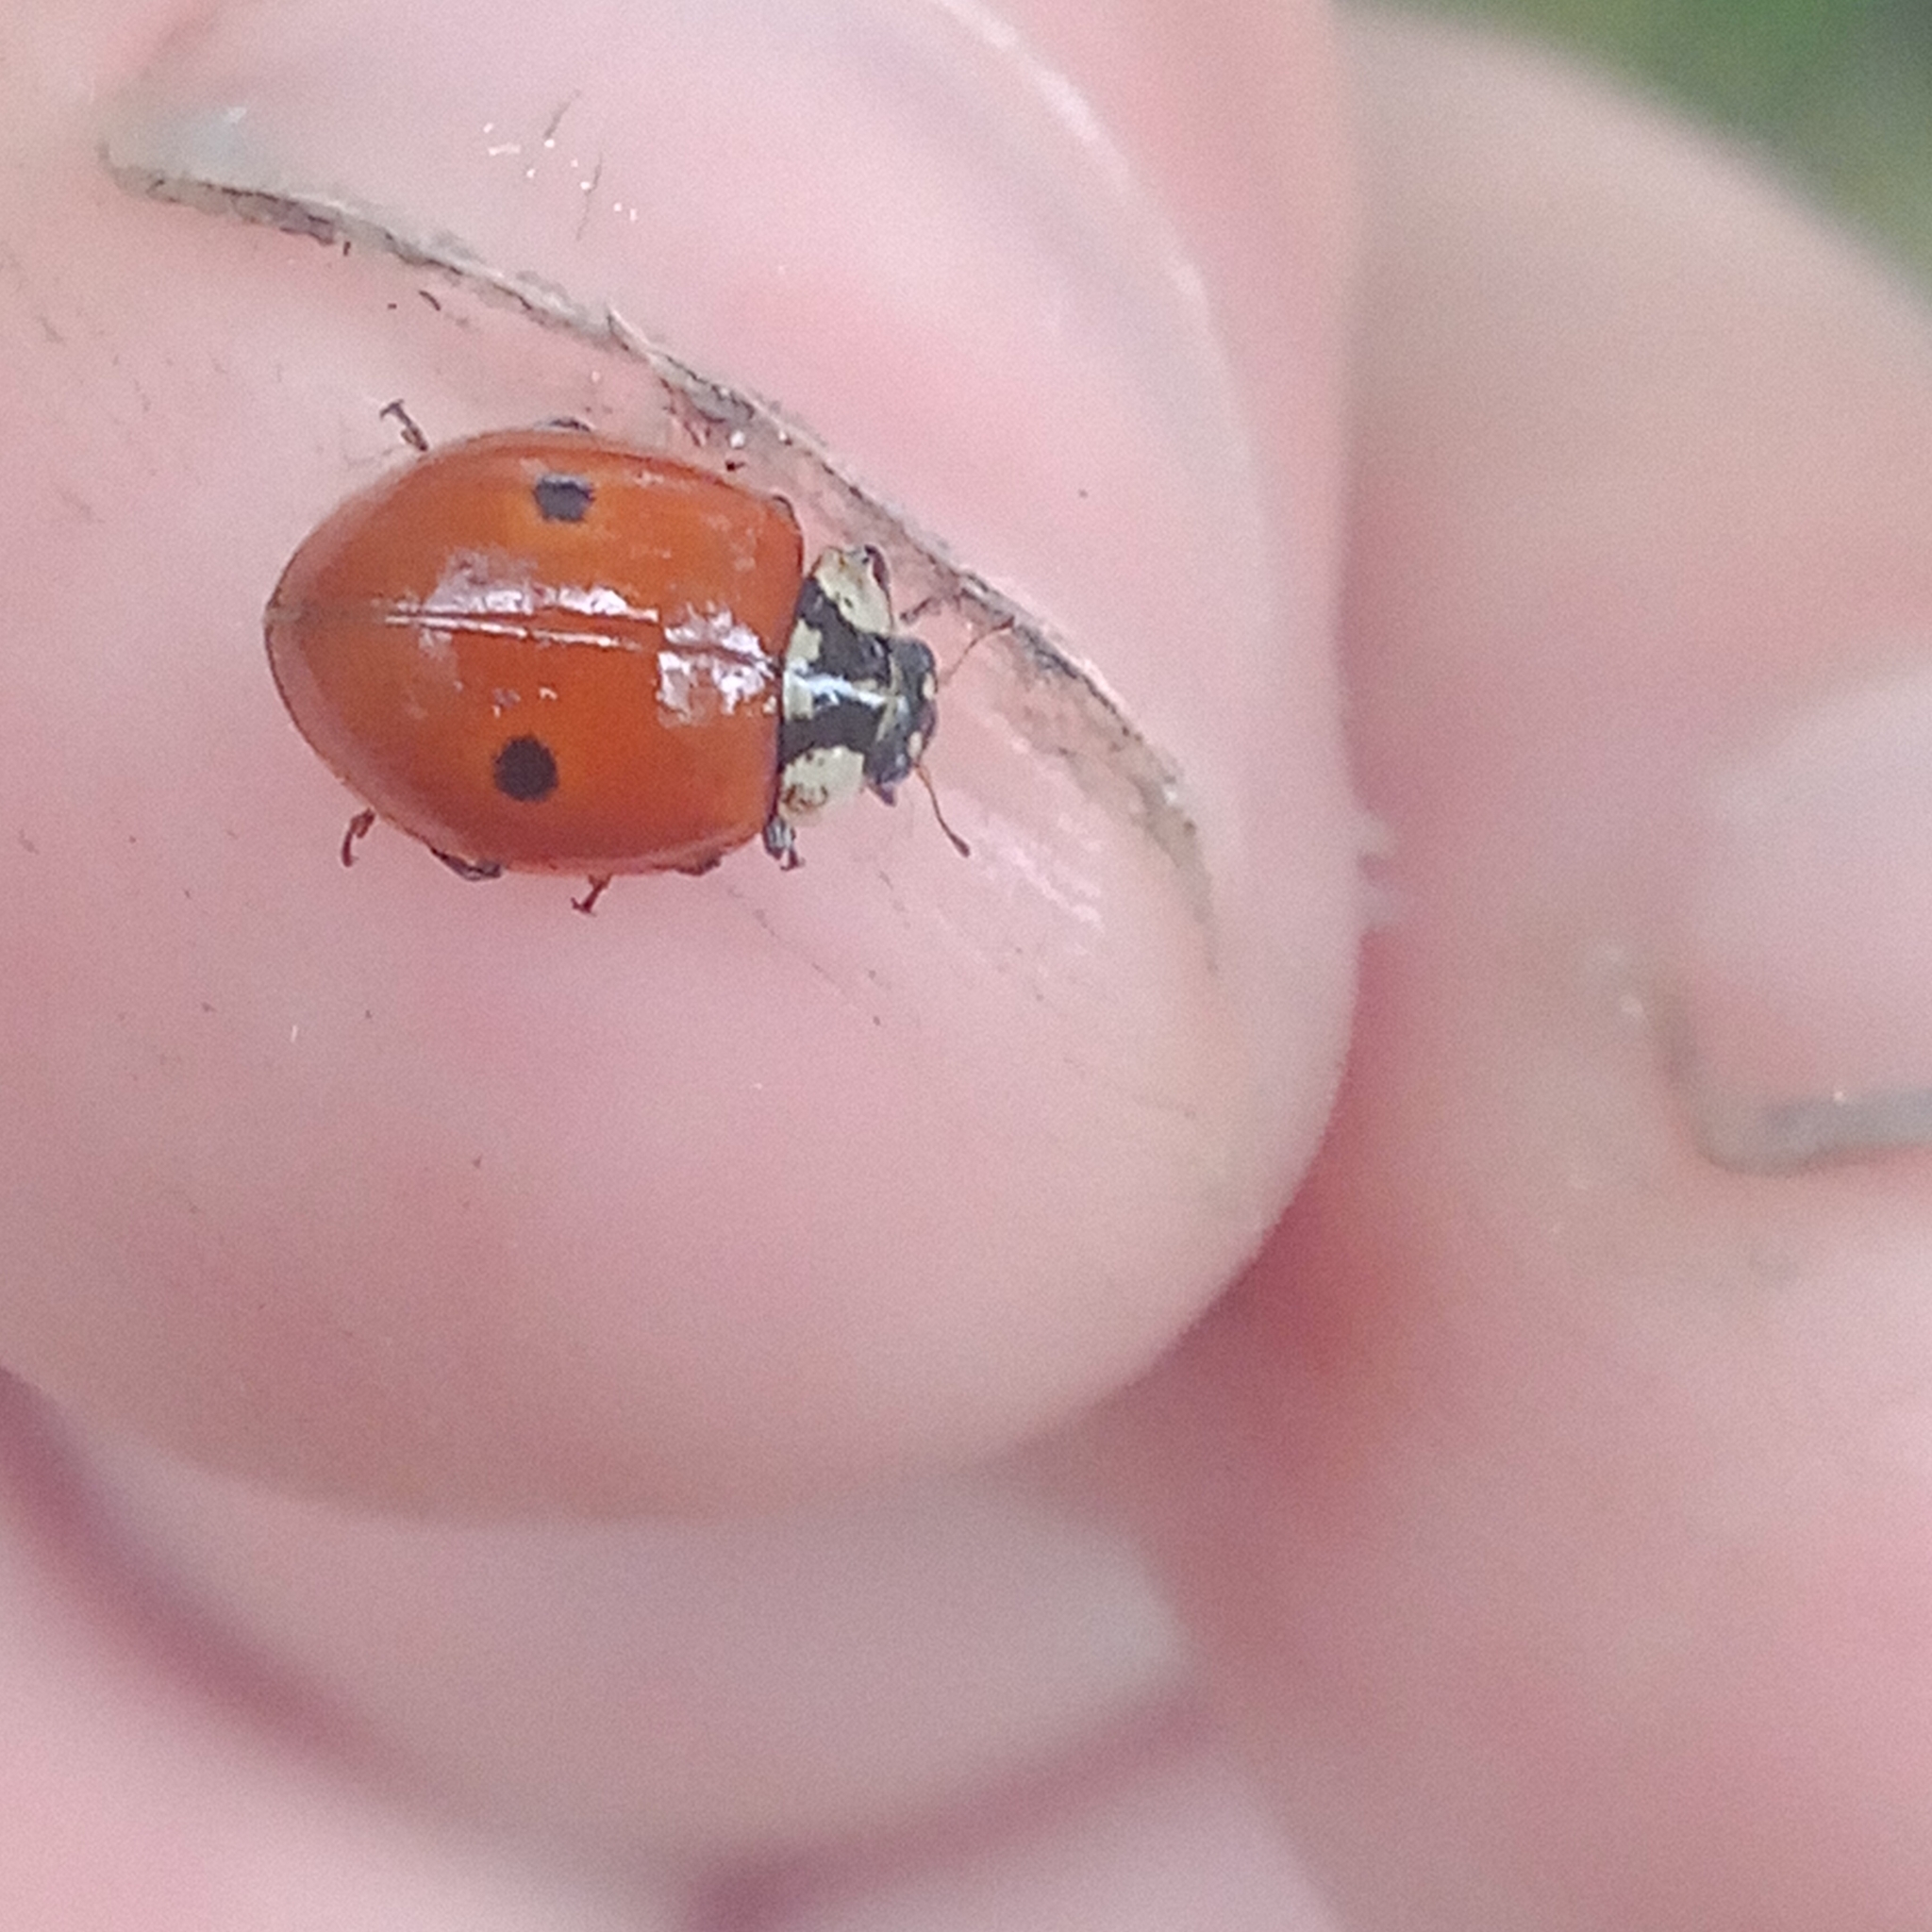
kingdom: Animalia
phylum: Arthropoda
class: Insecta
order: Coleoptera
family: Coccinellidae
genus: Adalia
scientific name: Adalia bipunctata
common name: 2-spot ladybird
